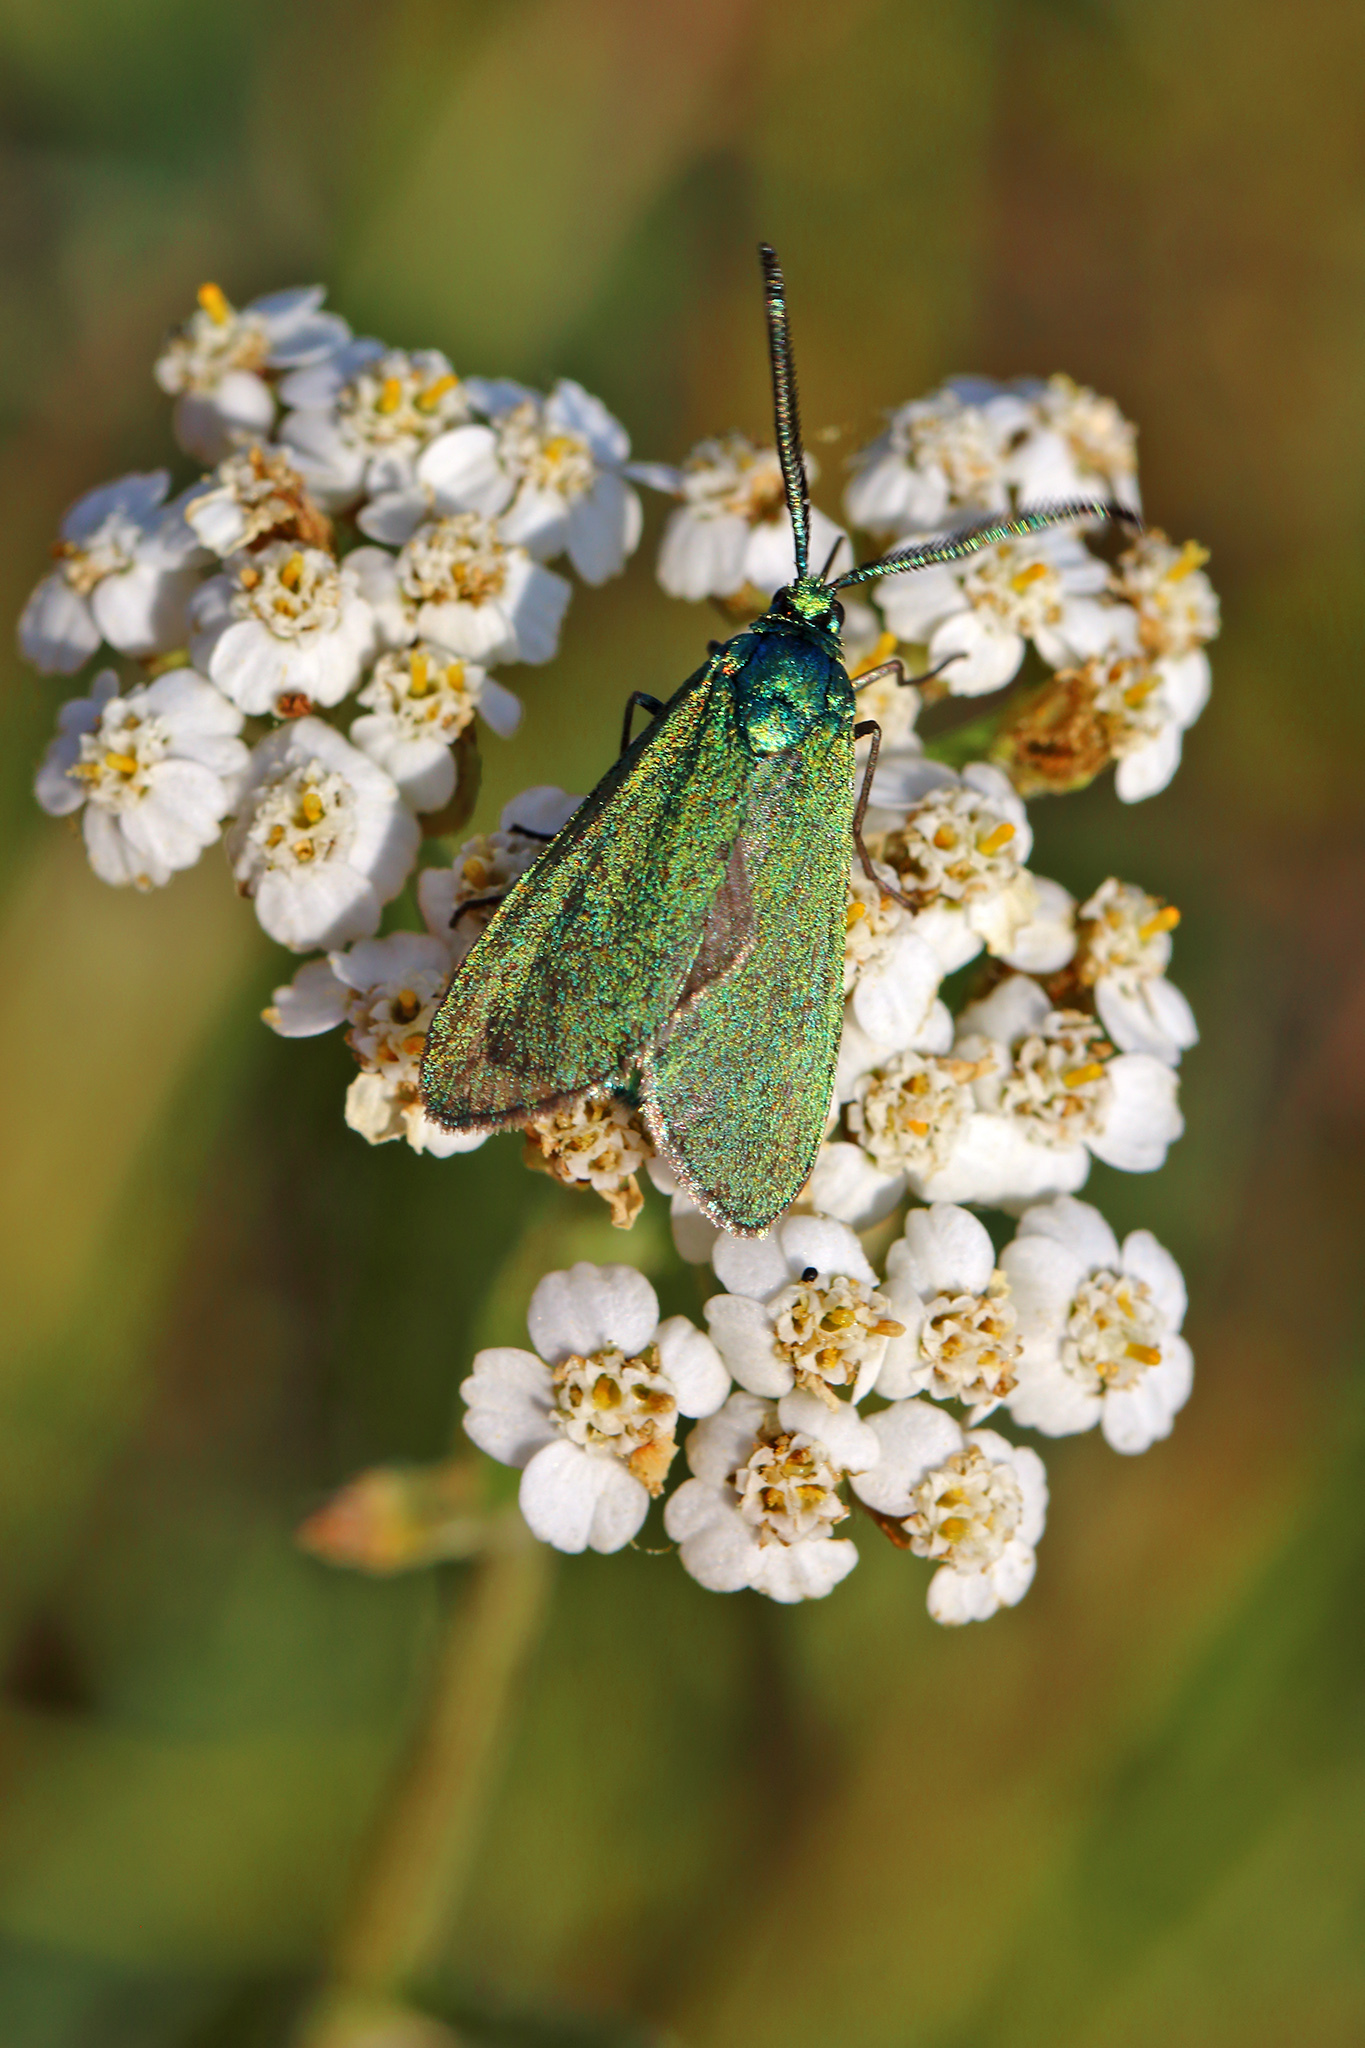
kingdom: Animalia
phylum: Arthropoda
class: Insecta
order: Lepidoptera
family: Zygaenidae
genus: Adscita
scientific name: Adscita statices
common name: Forester
